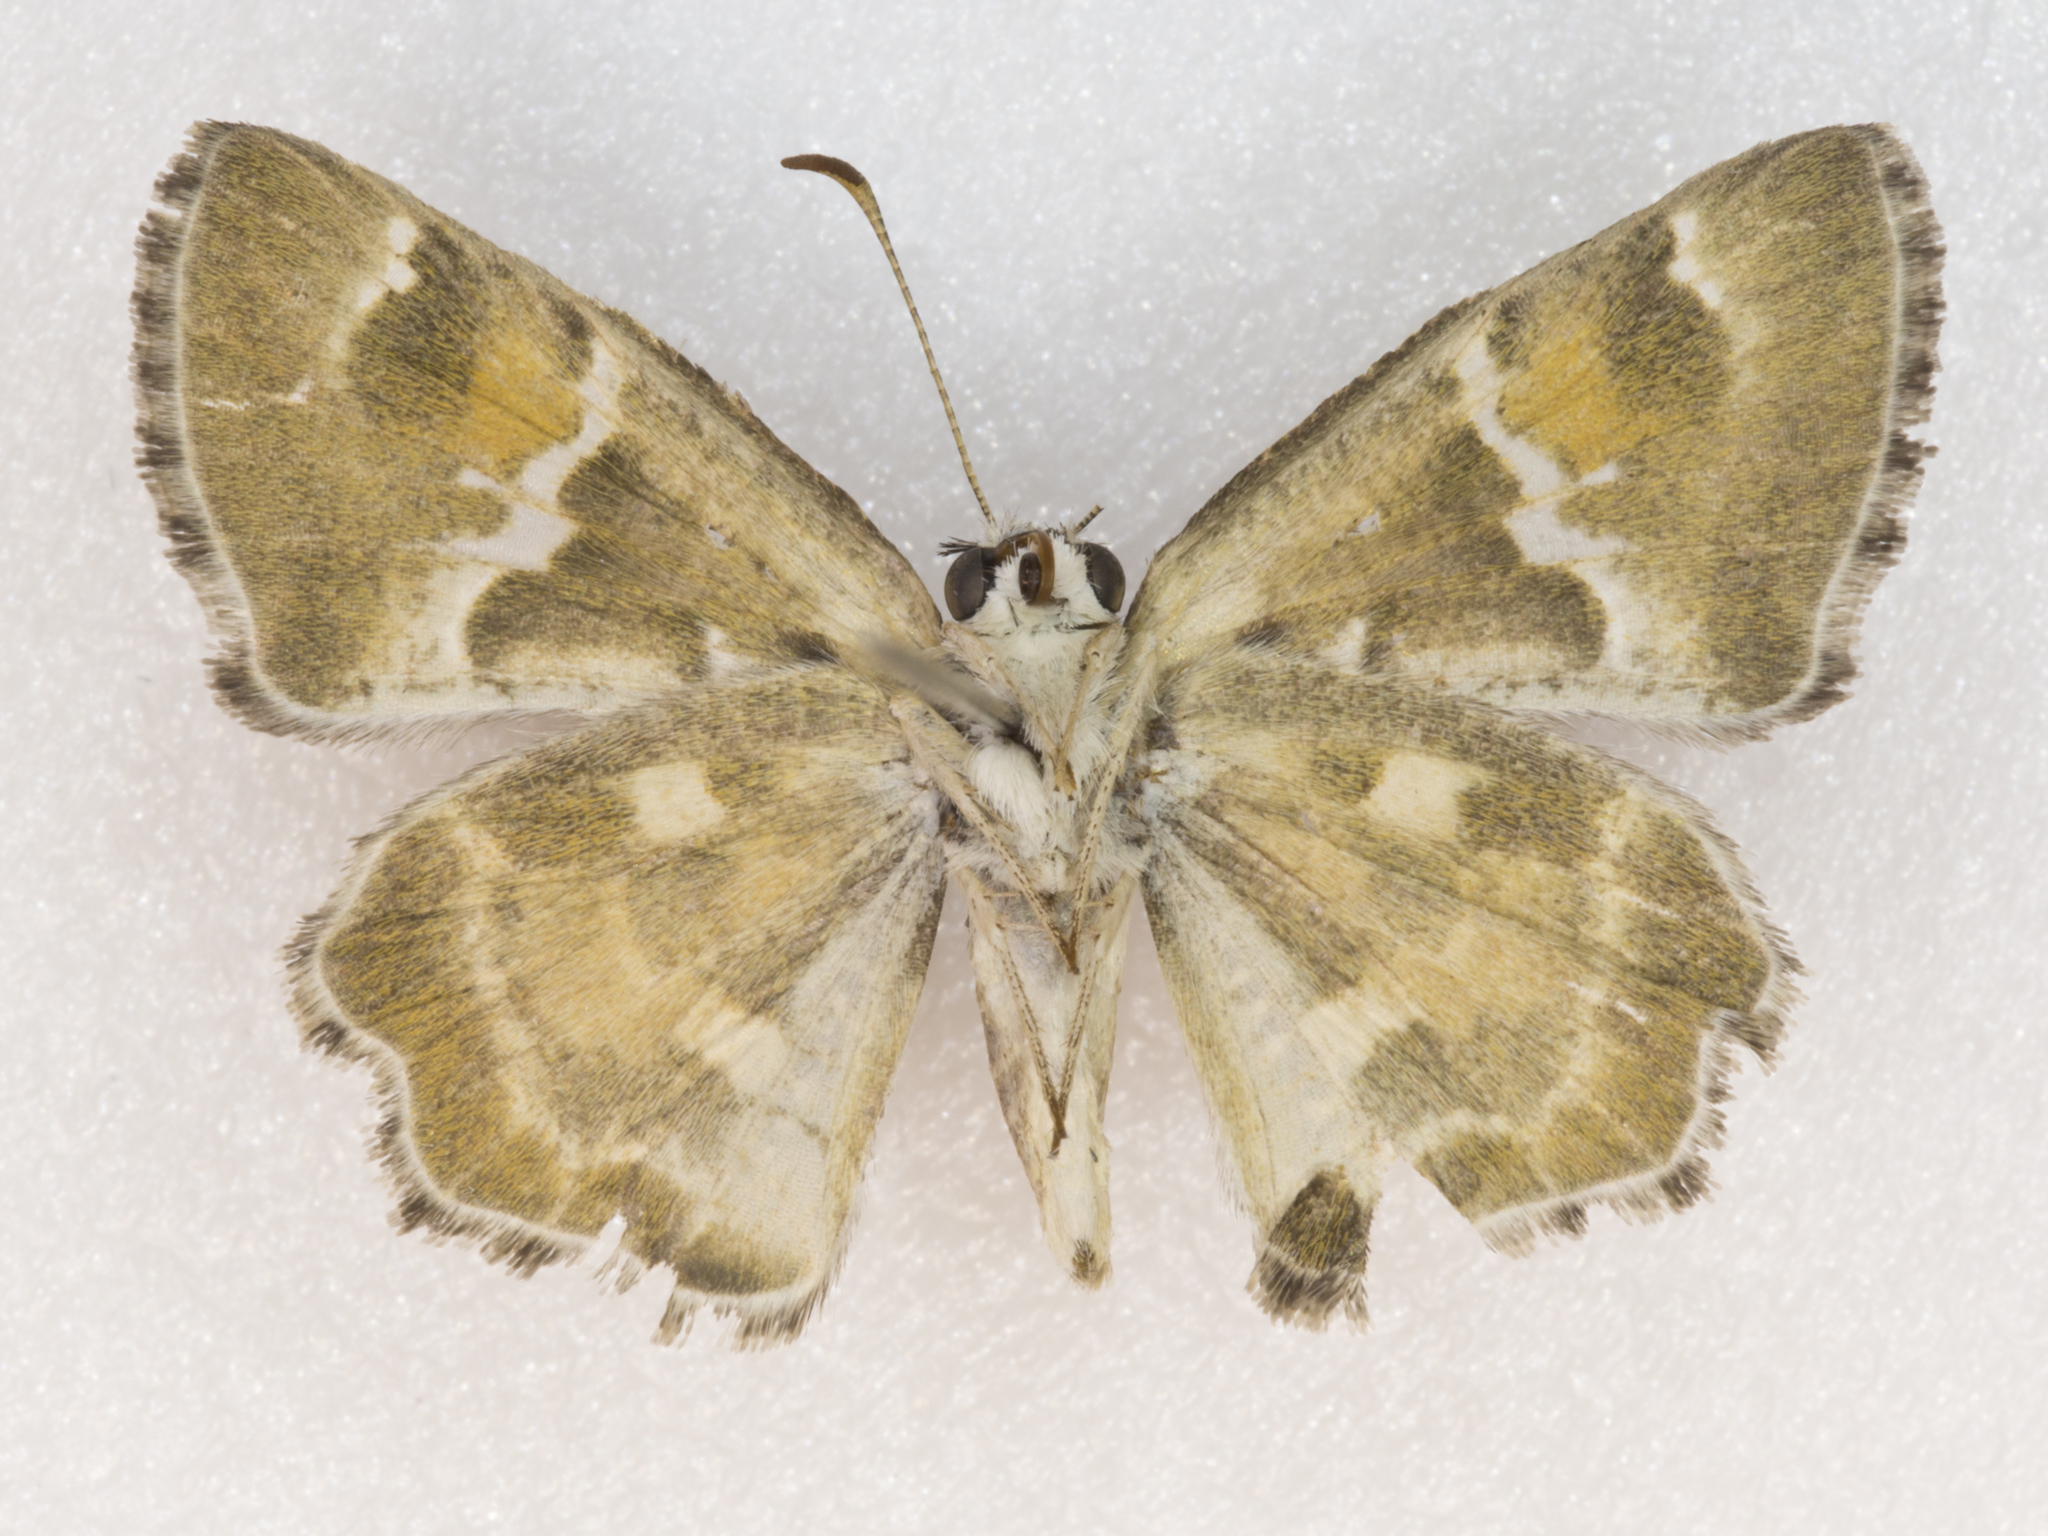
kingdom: Animalia
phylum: Arthropoda
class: Insecta
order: Lepidoptera
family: Hesperiidae
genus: Systasea
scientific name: Systasea zampa
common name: Arizona powdered-skipper
